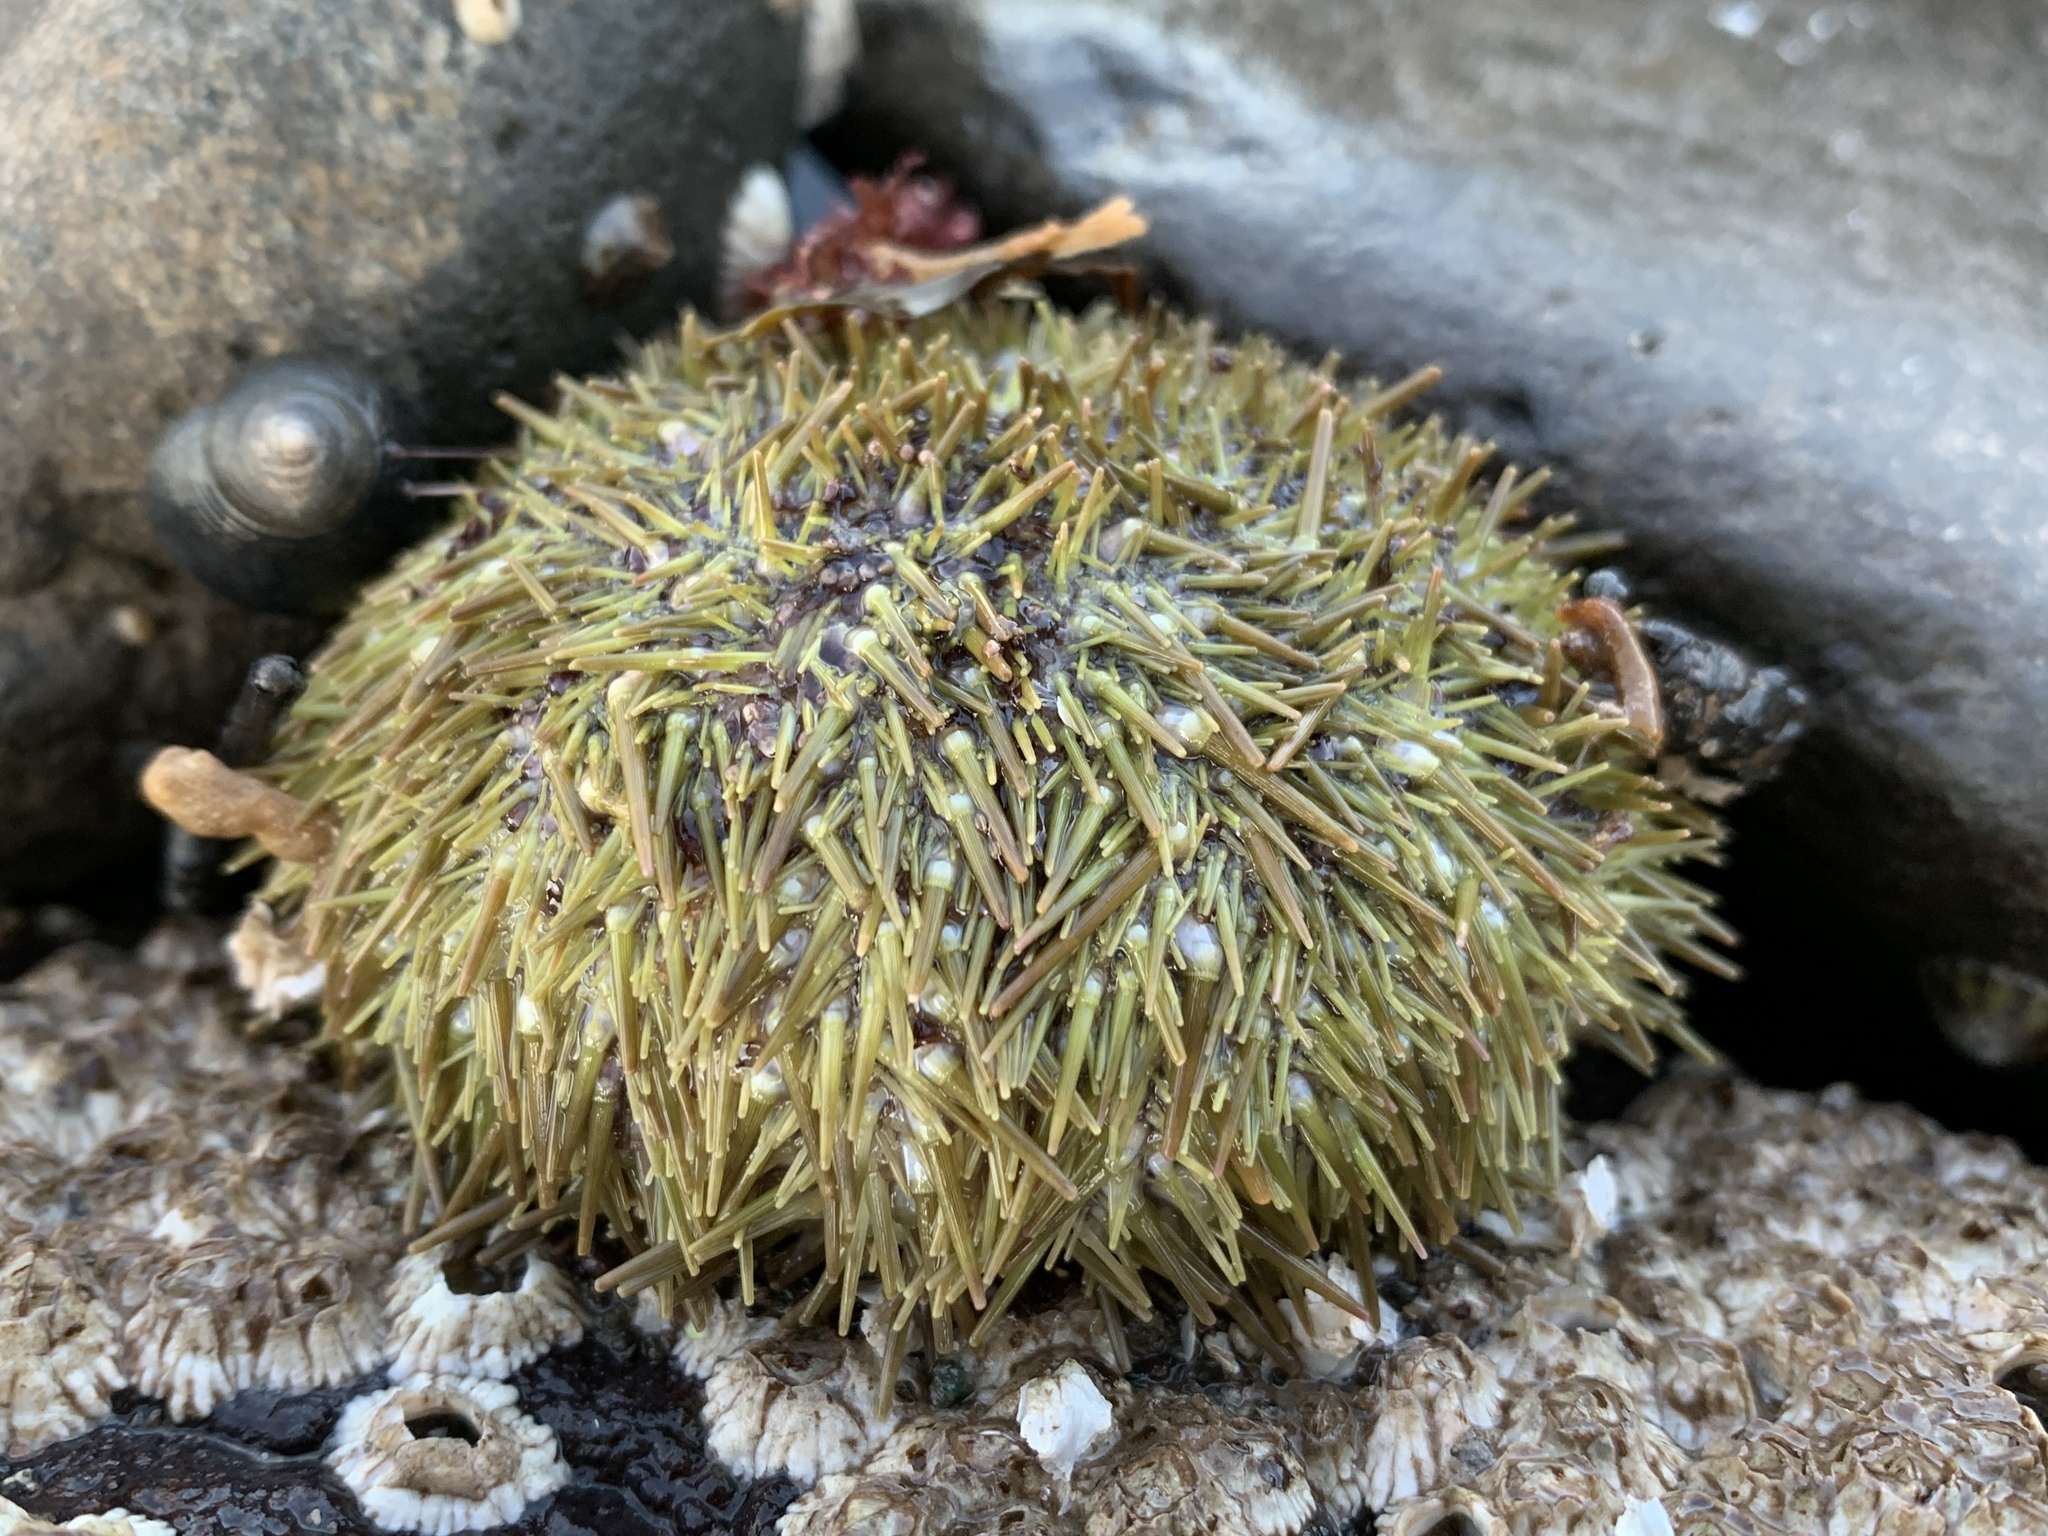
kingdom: Animalia
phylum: Echinodermata
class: Echinoidea
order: Camarodonta
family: Strongylocentrotidae
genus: Strongylocentrotus
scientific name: Strongylocentrotus droebachiensis
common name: Northern sea urchin
